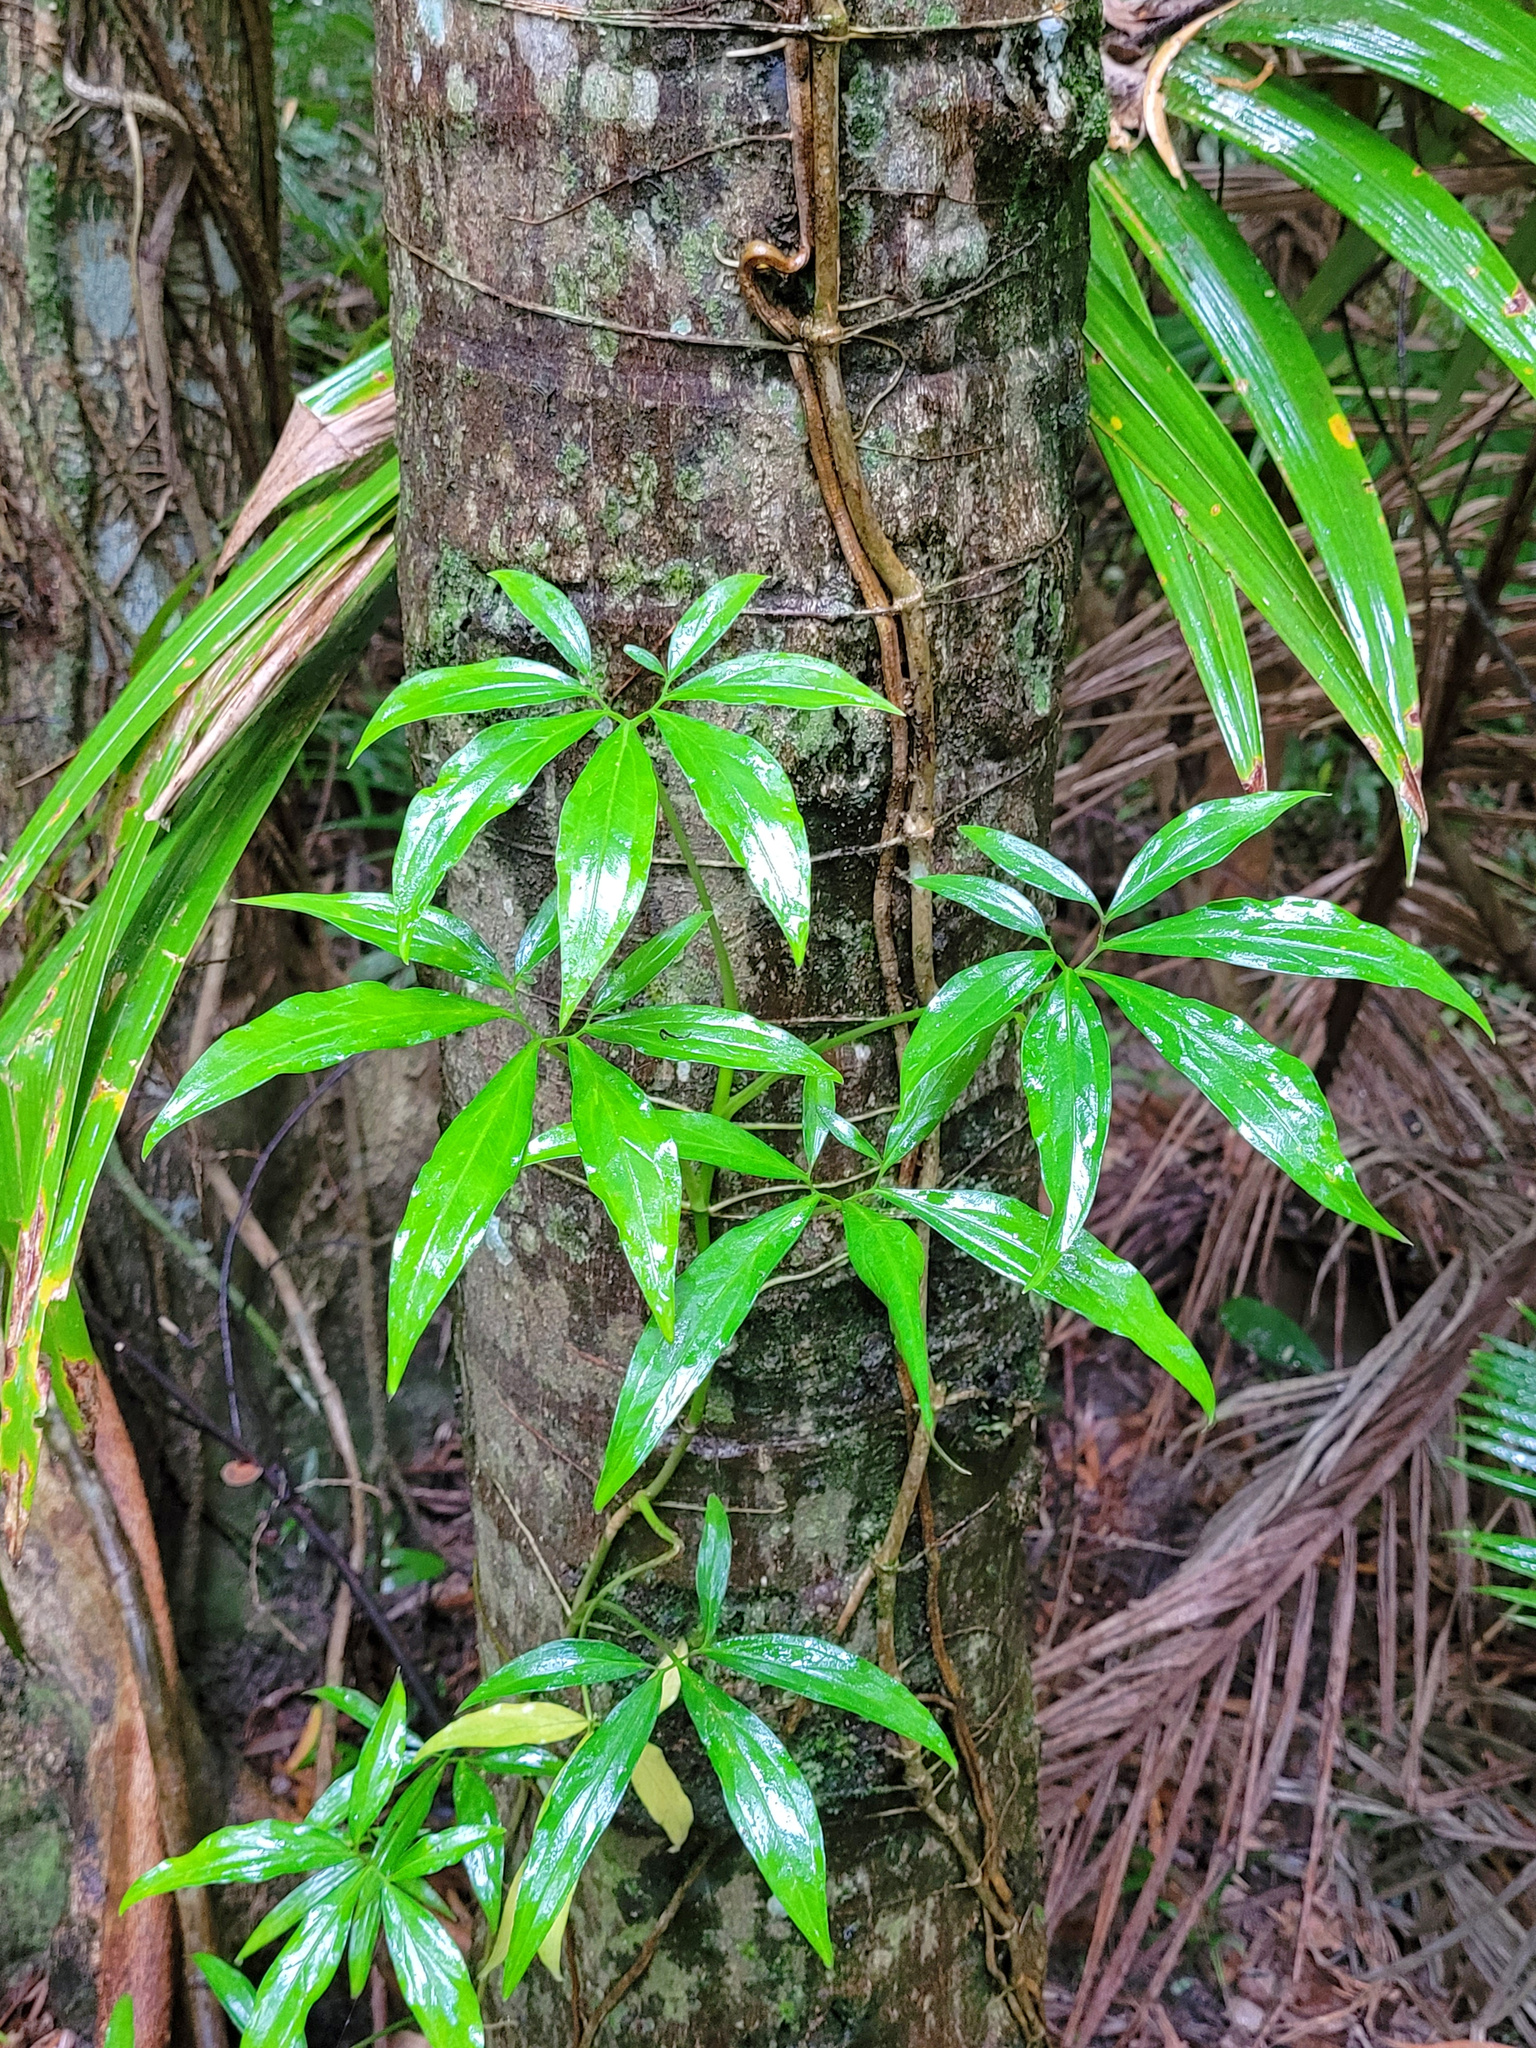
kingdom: Plantae
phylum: Tracheophyta
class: Liliopsida
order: Alismatales
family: Araceae
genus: Syngonium
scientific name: Syngonium podophyllum
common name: American evergreen
